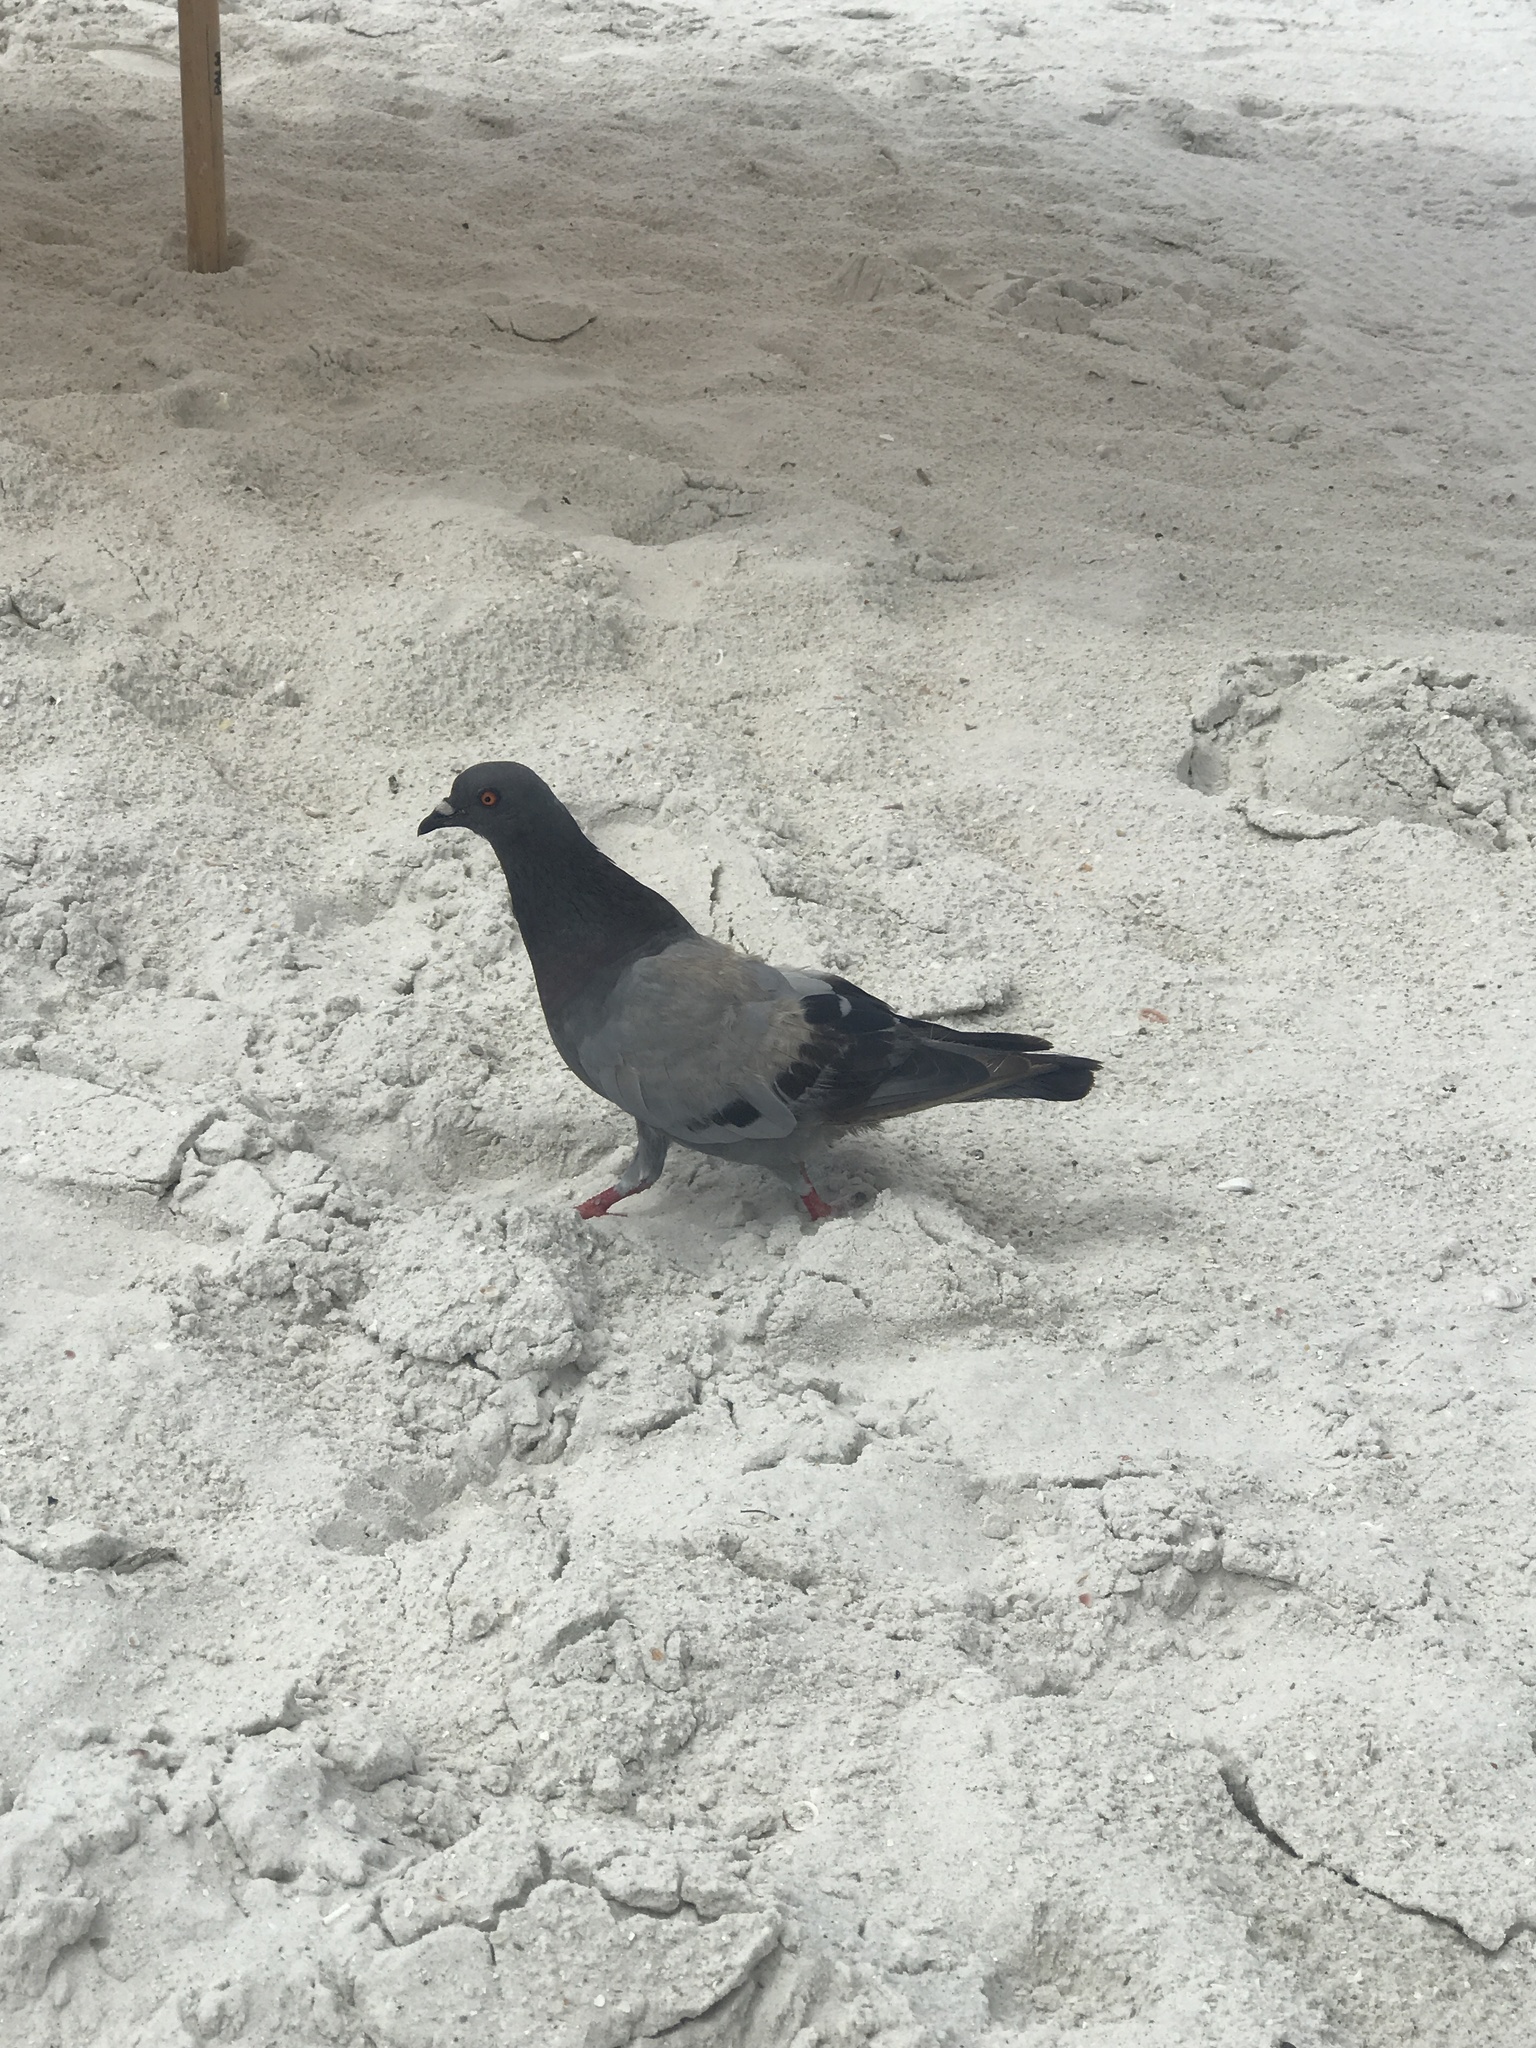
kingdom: Animalia
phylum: Chordata
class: Aves
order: Columbiformes
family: Columbidae
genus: Columba
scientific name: Columba livia
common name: Rock pigeon
